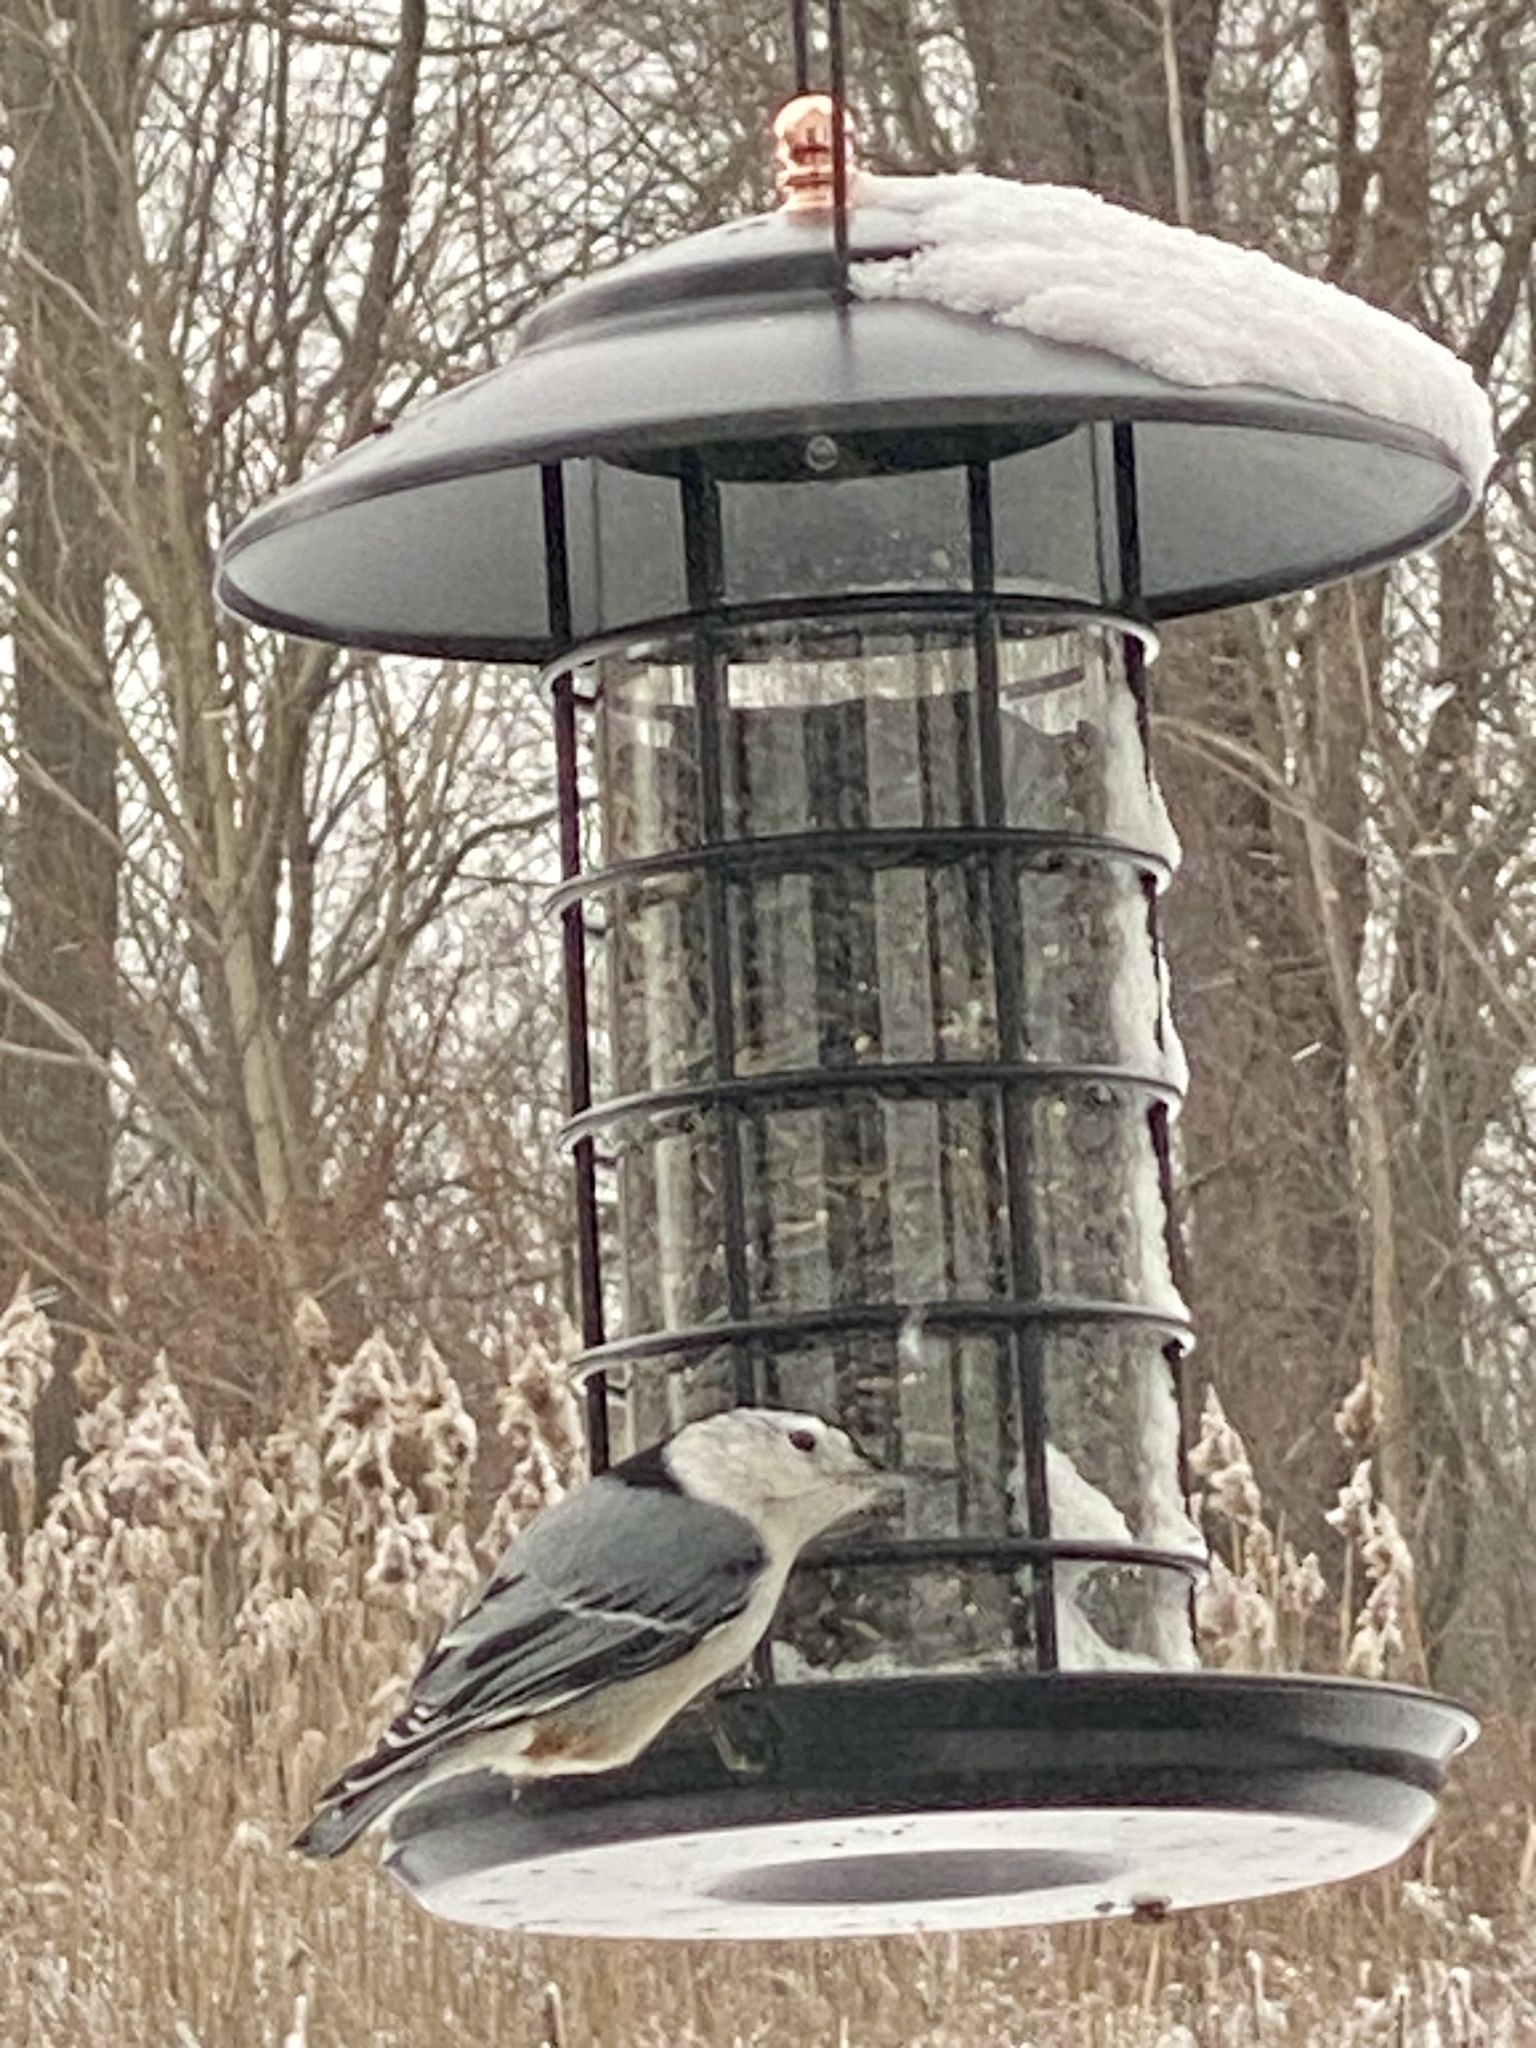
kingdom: Animalia
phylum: Chordata
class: Aves
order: Passeriformes
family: Sittidae
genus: Sitta
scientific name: Sitta carolinensis
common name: White-breasted nuthatch
